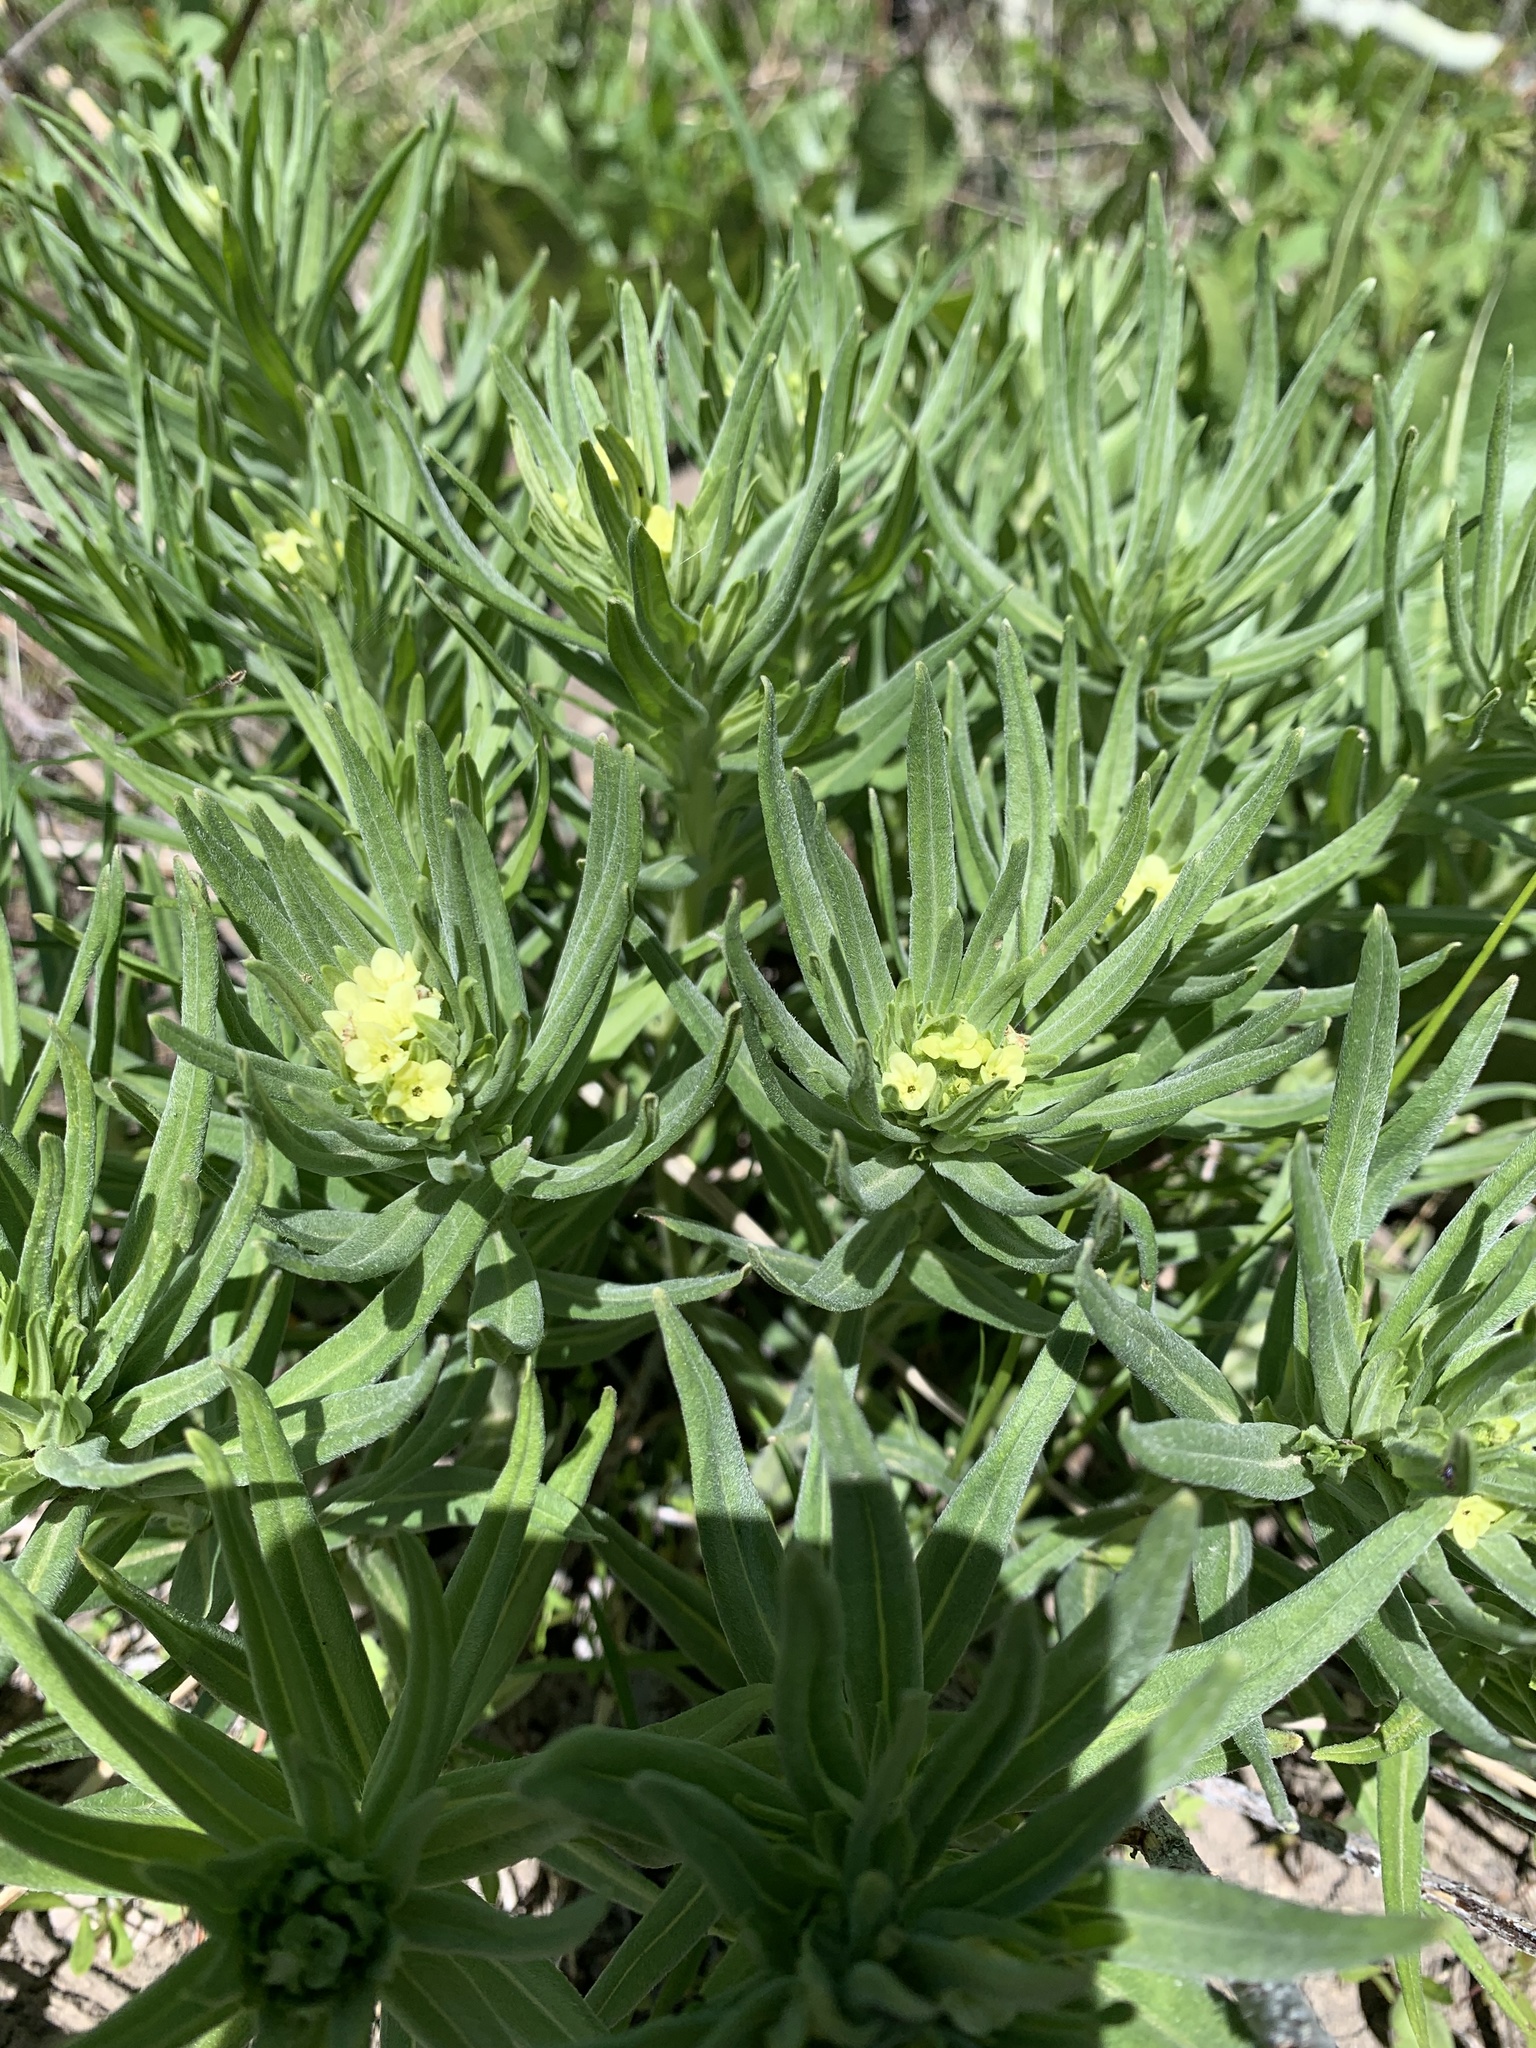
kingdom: Plantae
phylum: Tracheophyta
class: Magnoliopsida
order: Boraginales
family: Boraginaceae
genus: Lithospermum
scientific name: Lithospermum ruderale
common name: Western gromwell
